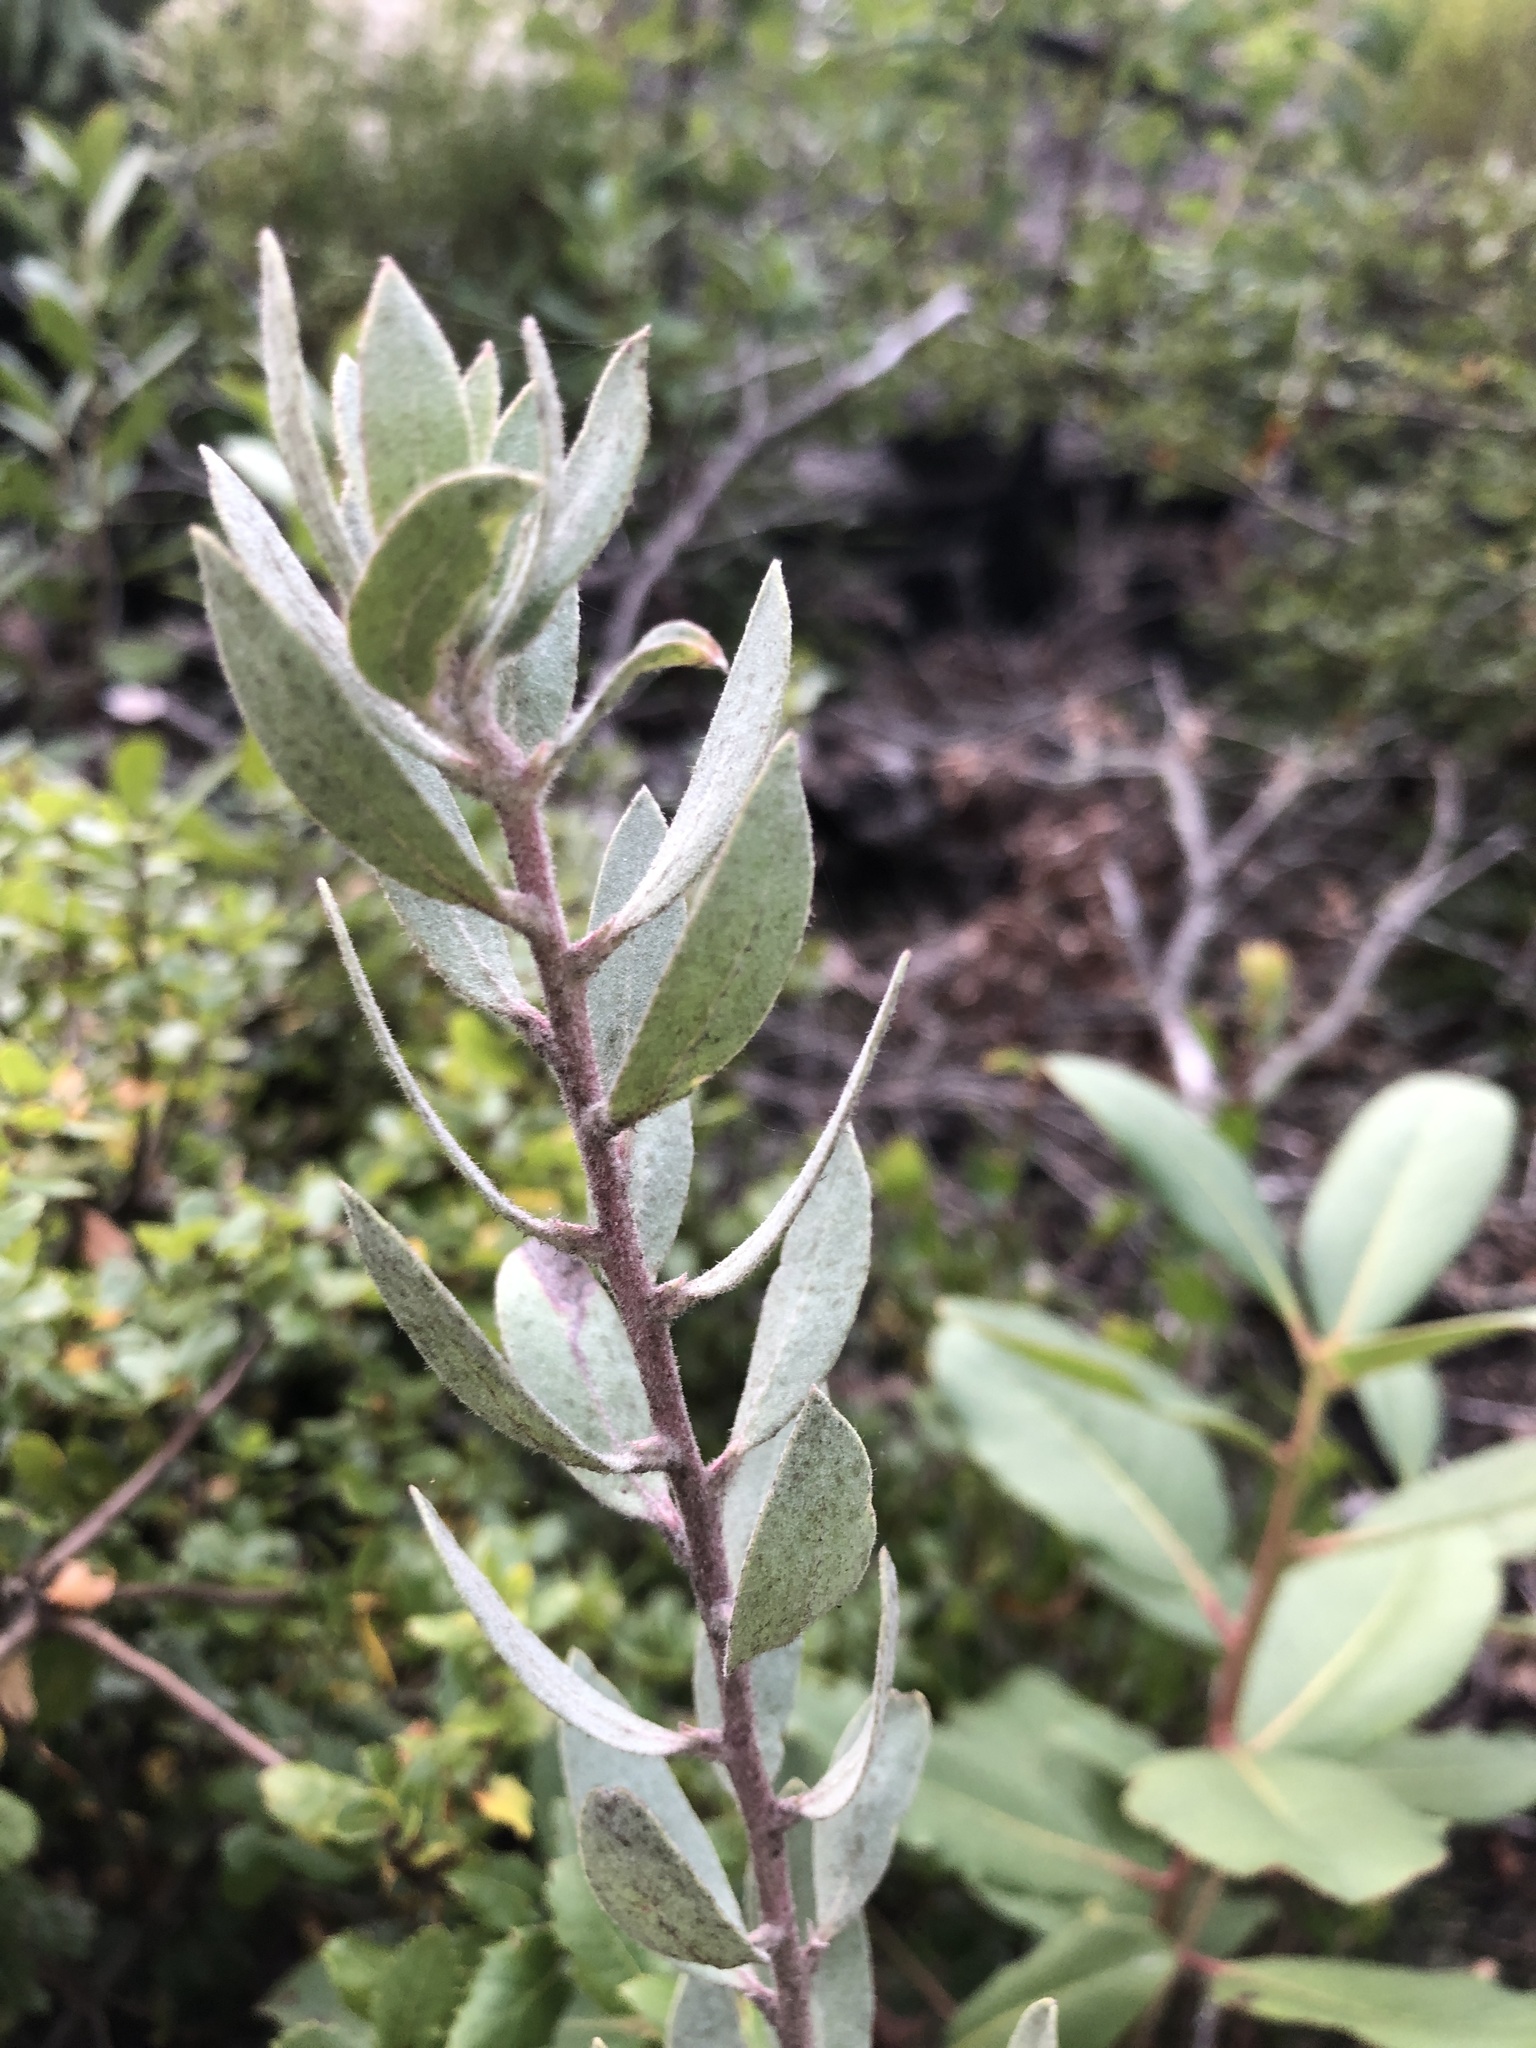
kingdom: Plantae
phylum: Tracheophyta
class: Magnoliopsida
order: Ericales
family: Ericaceae
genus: Arctostaphylos
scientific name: Arctostaphylos silvicola
